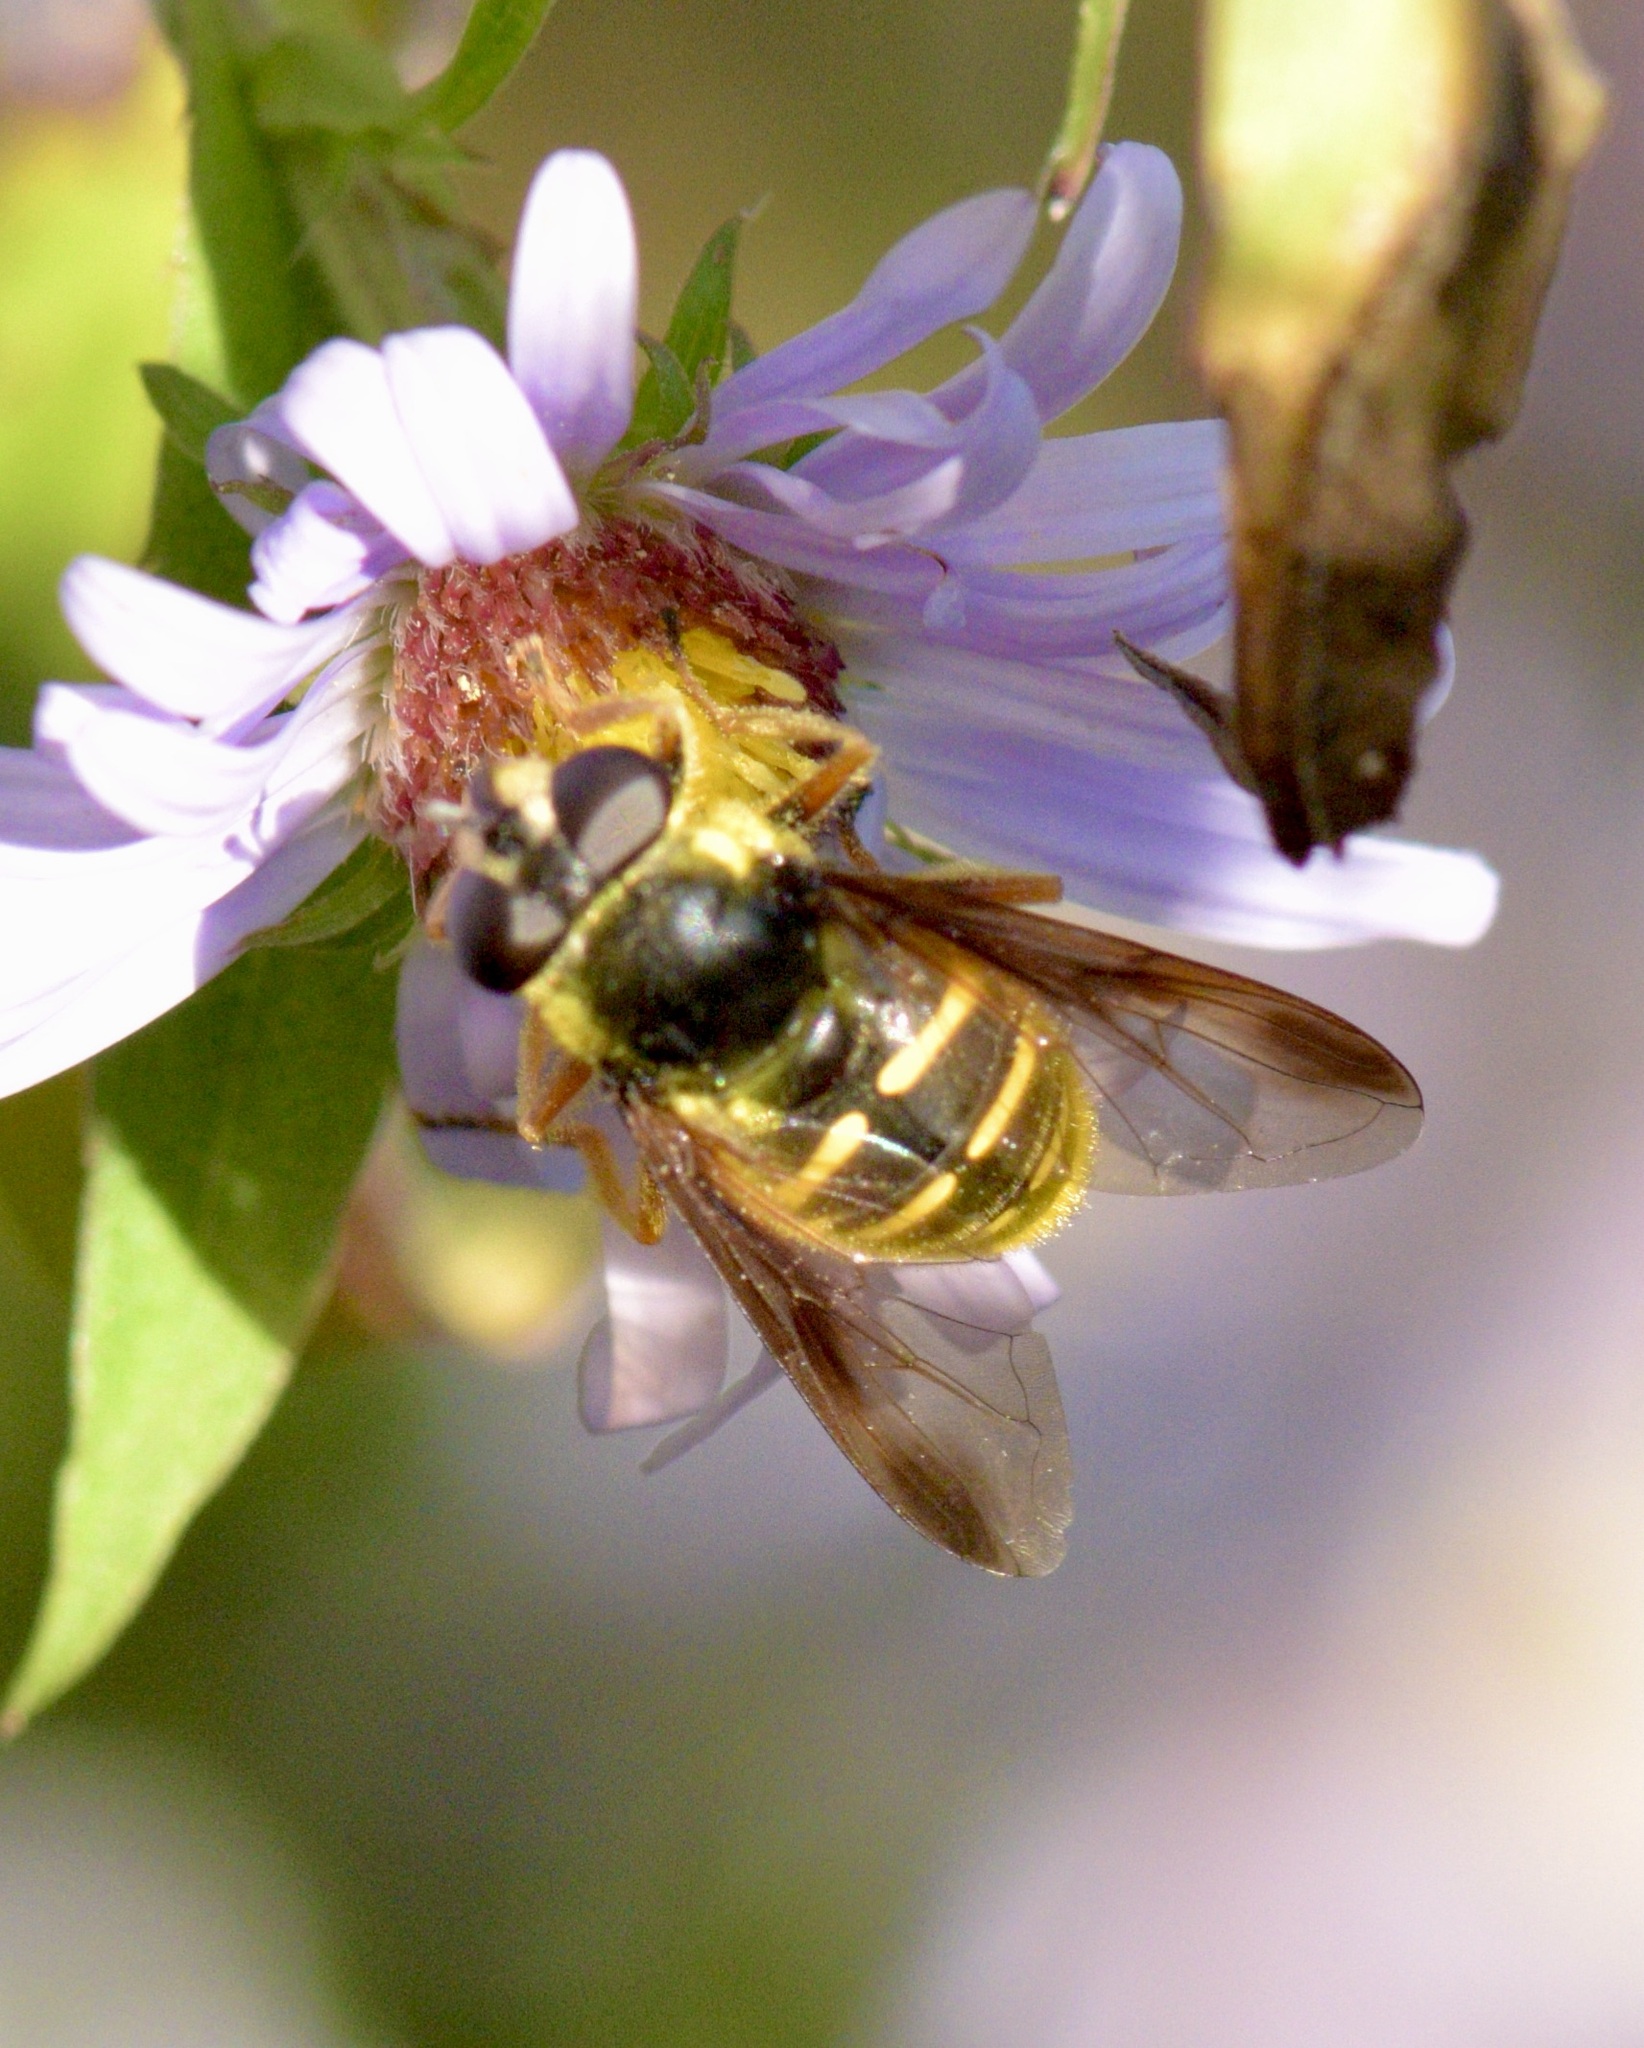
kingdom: Animalia
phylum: Arthropoda
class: Insecta
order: Diptera
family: Syrphidae
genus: Sericomyia
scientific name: Sericomyia chrysotoxoides
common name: Oblique-banded pond fly
